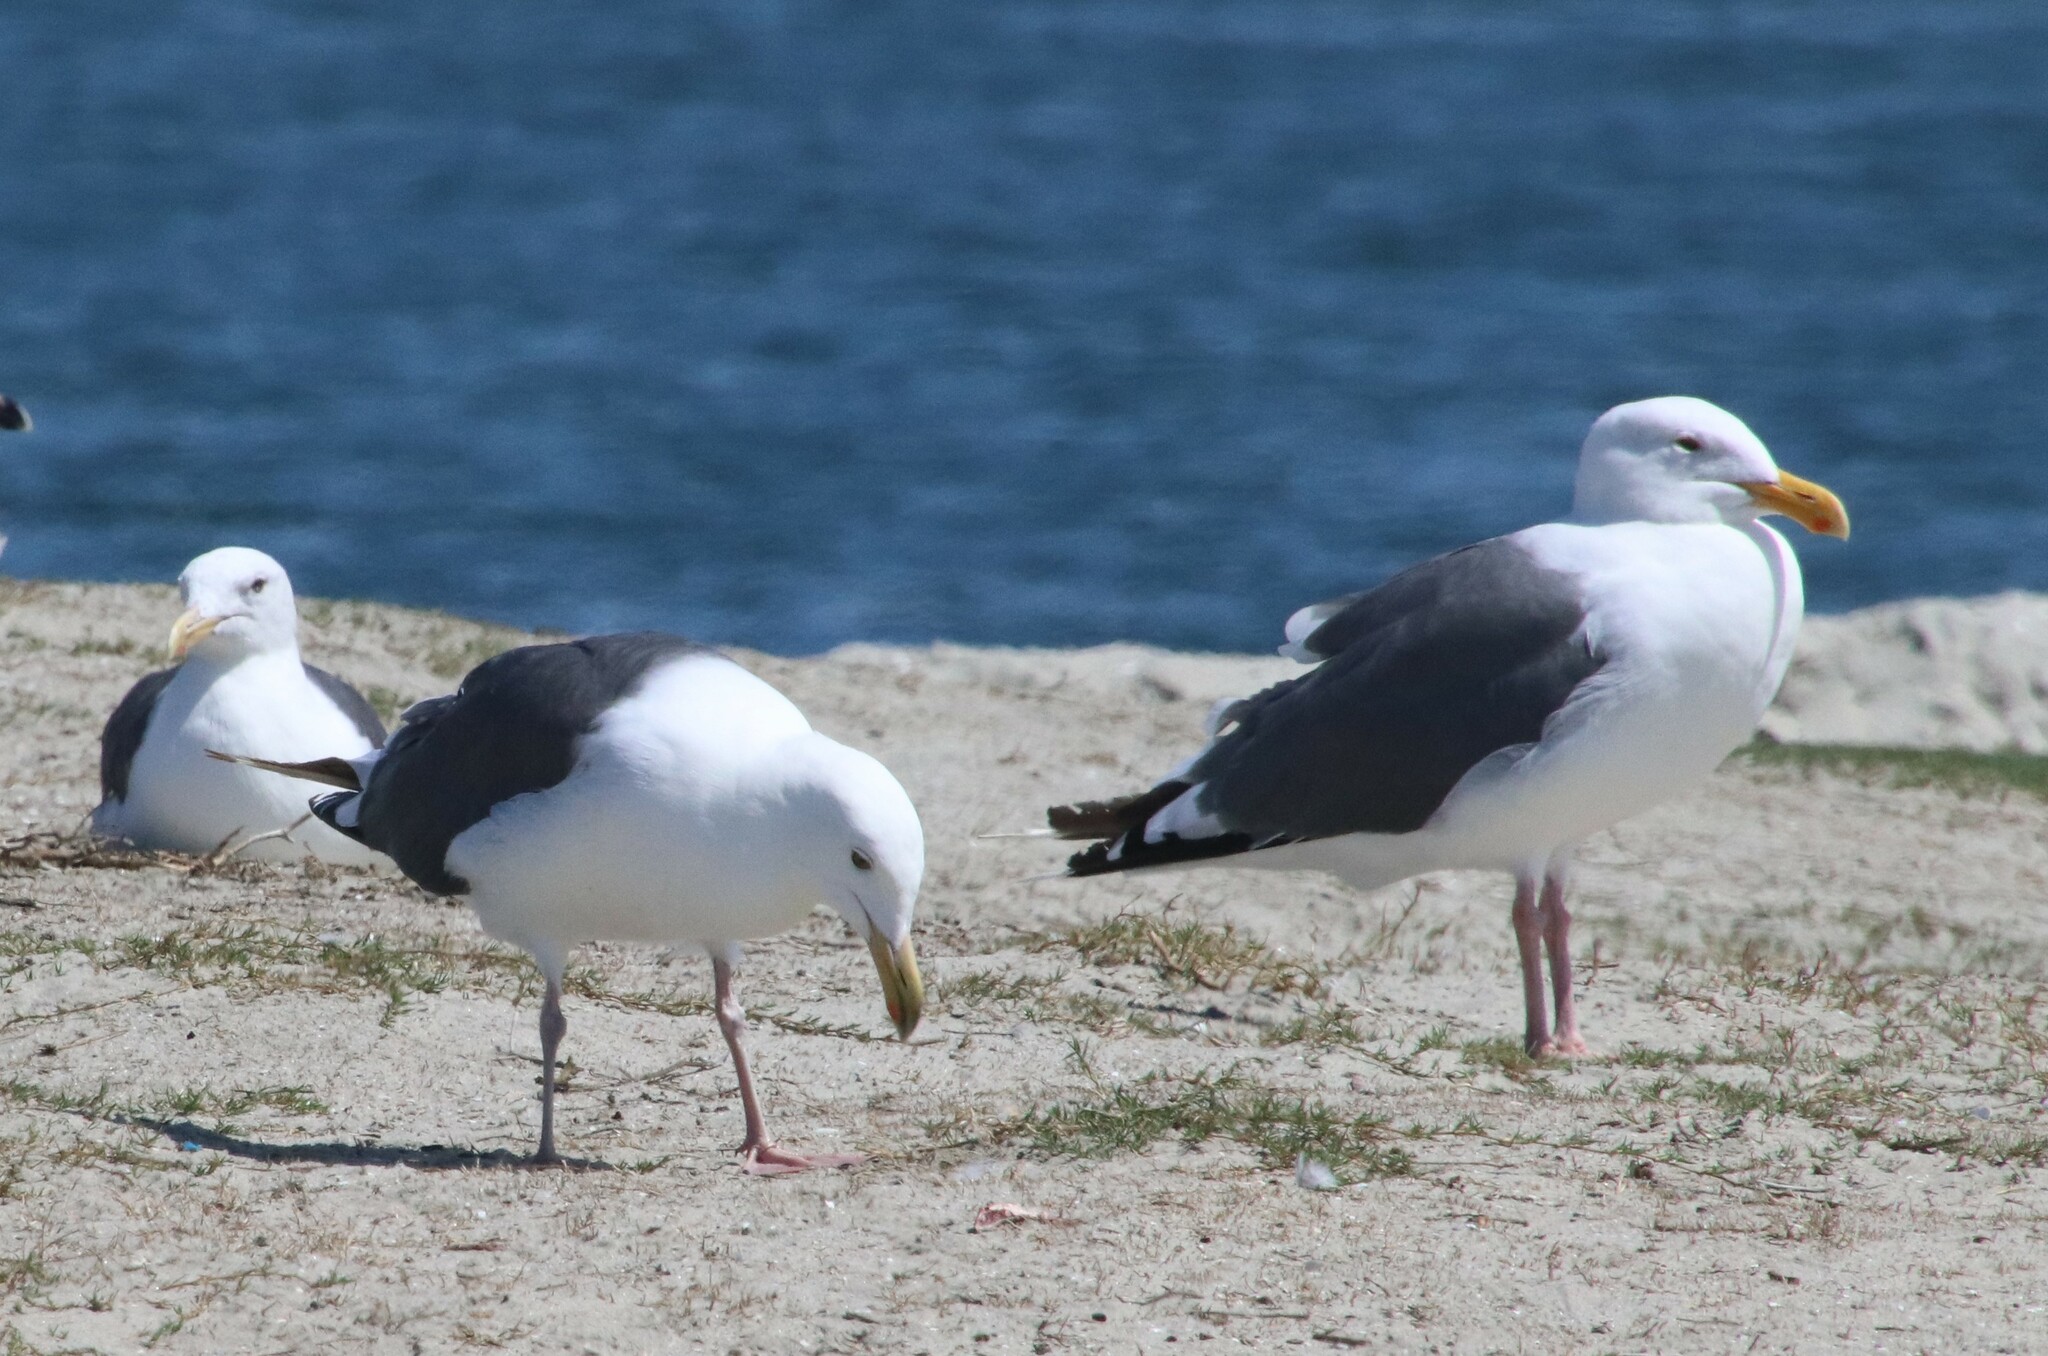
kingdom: Animalia
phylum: Chordata
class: Aves
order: Charadriiformes
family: Laridae
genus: Larus
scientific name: Larus occidentalis
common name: Western gull
